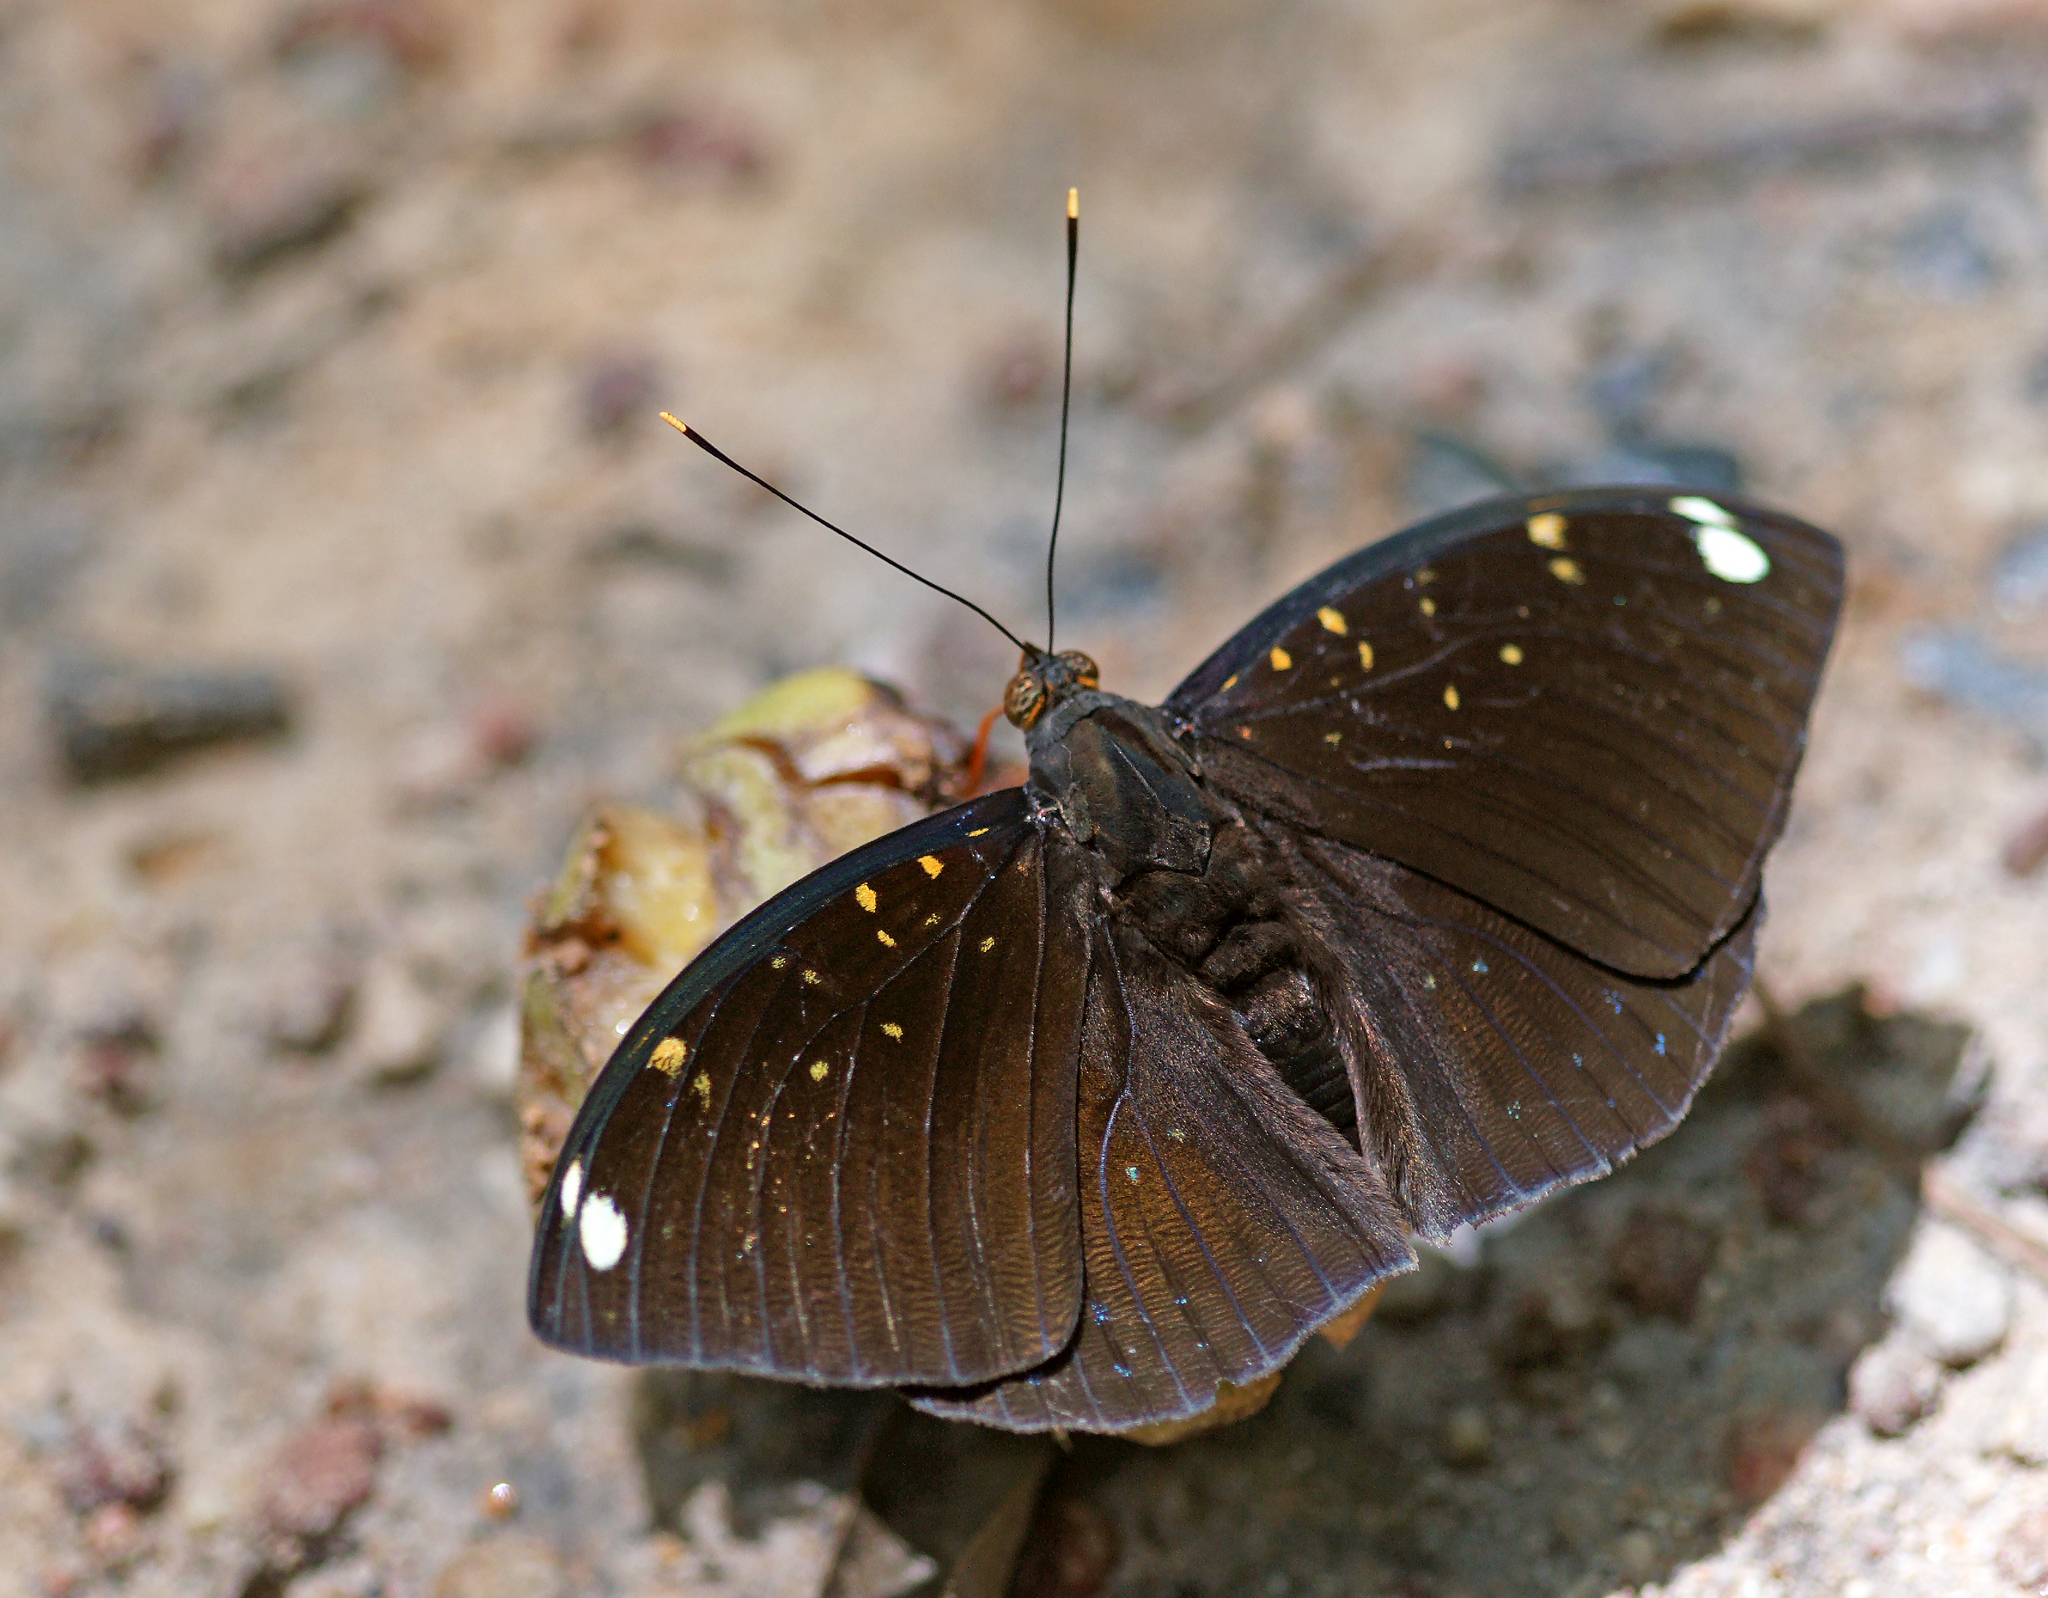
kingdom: Animalia
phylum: Arthropoda
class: Insecta
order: Lepidoptera
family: Nymphalidae
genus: Lexias
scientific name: Lexias
